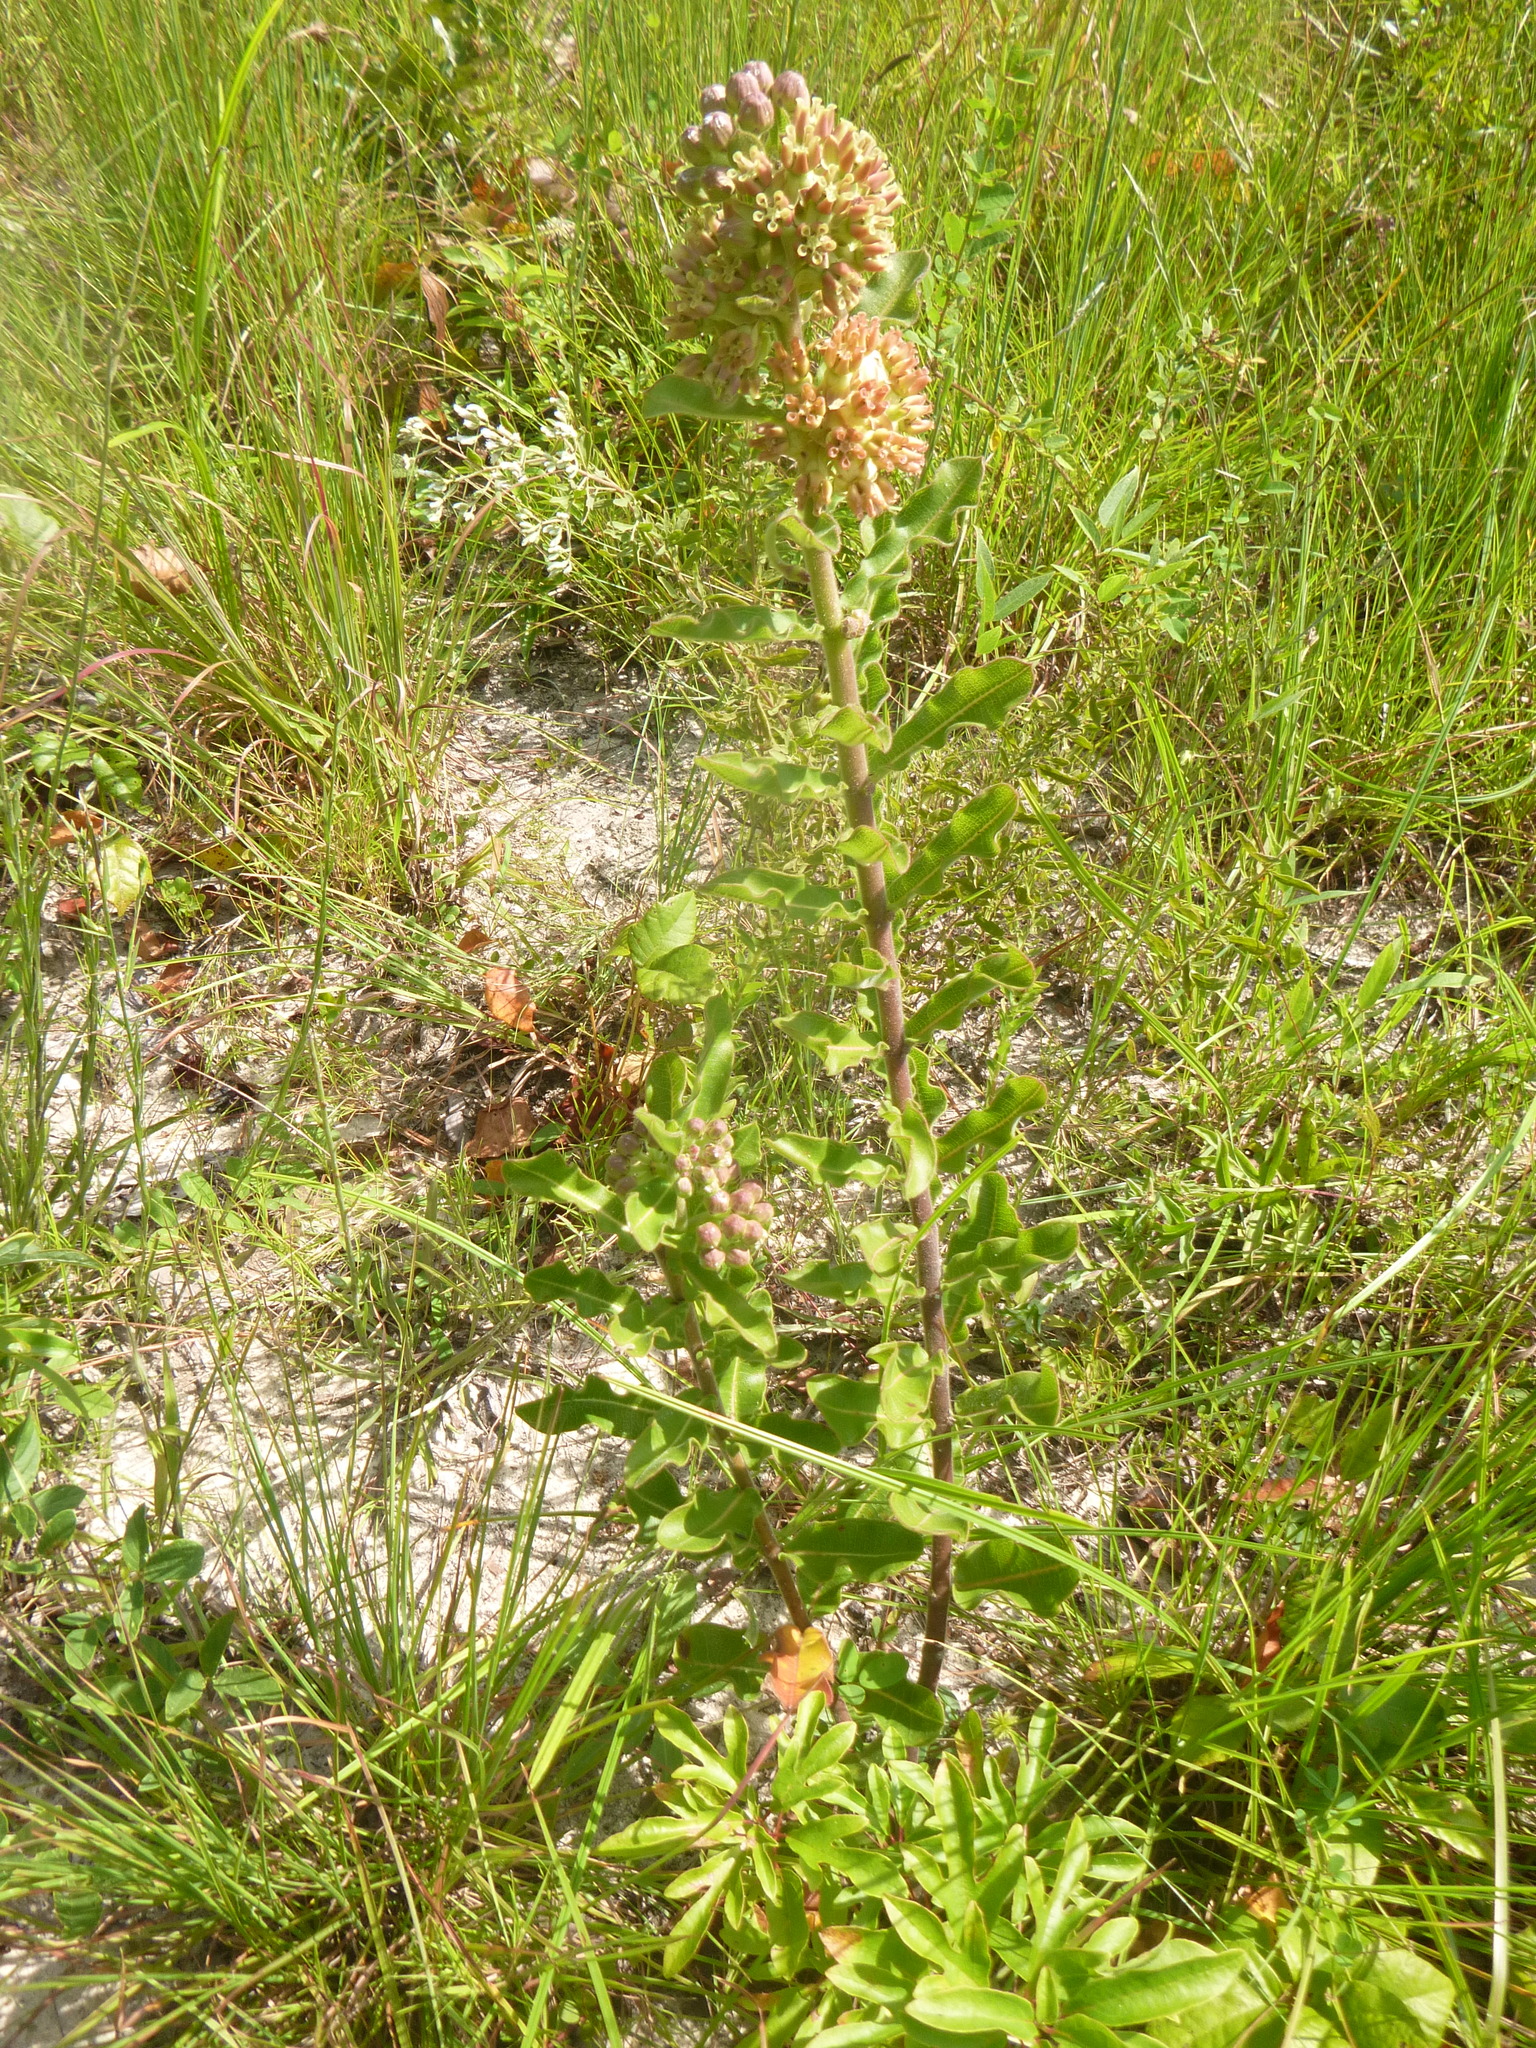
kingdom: Plantae
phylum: Tracheophyta
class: Magnoliopsida
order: Gentianales
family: Apocynaceae
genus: Asclepias
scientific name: Asclepias obovata
